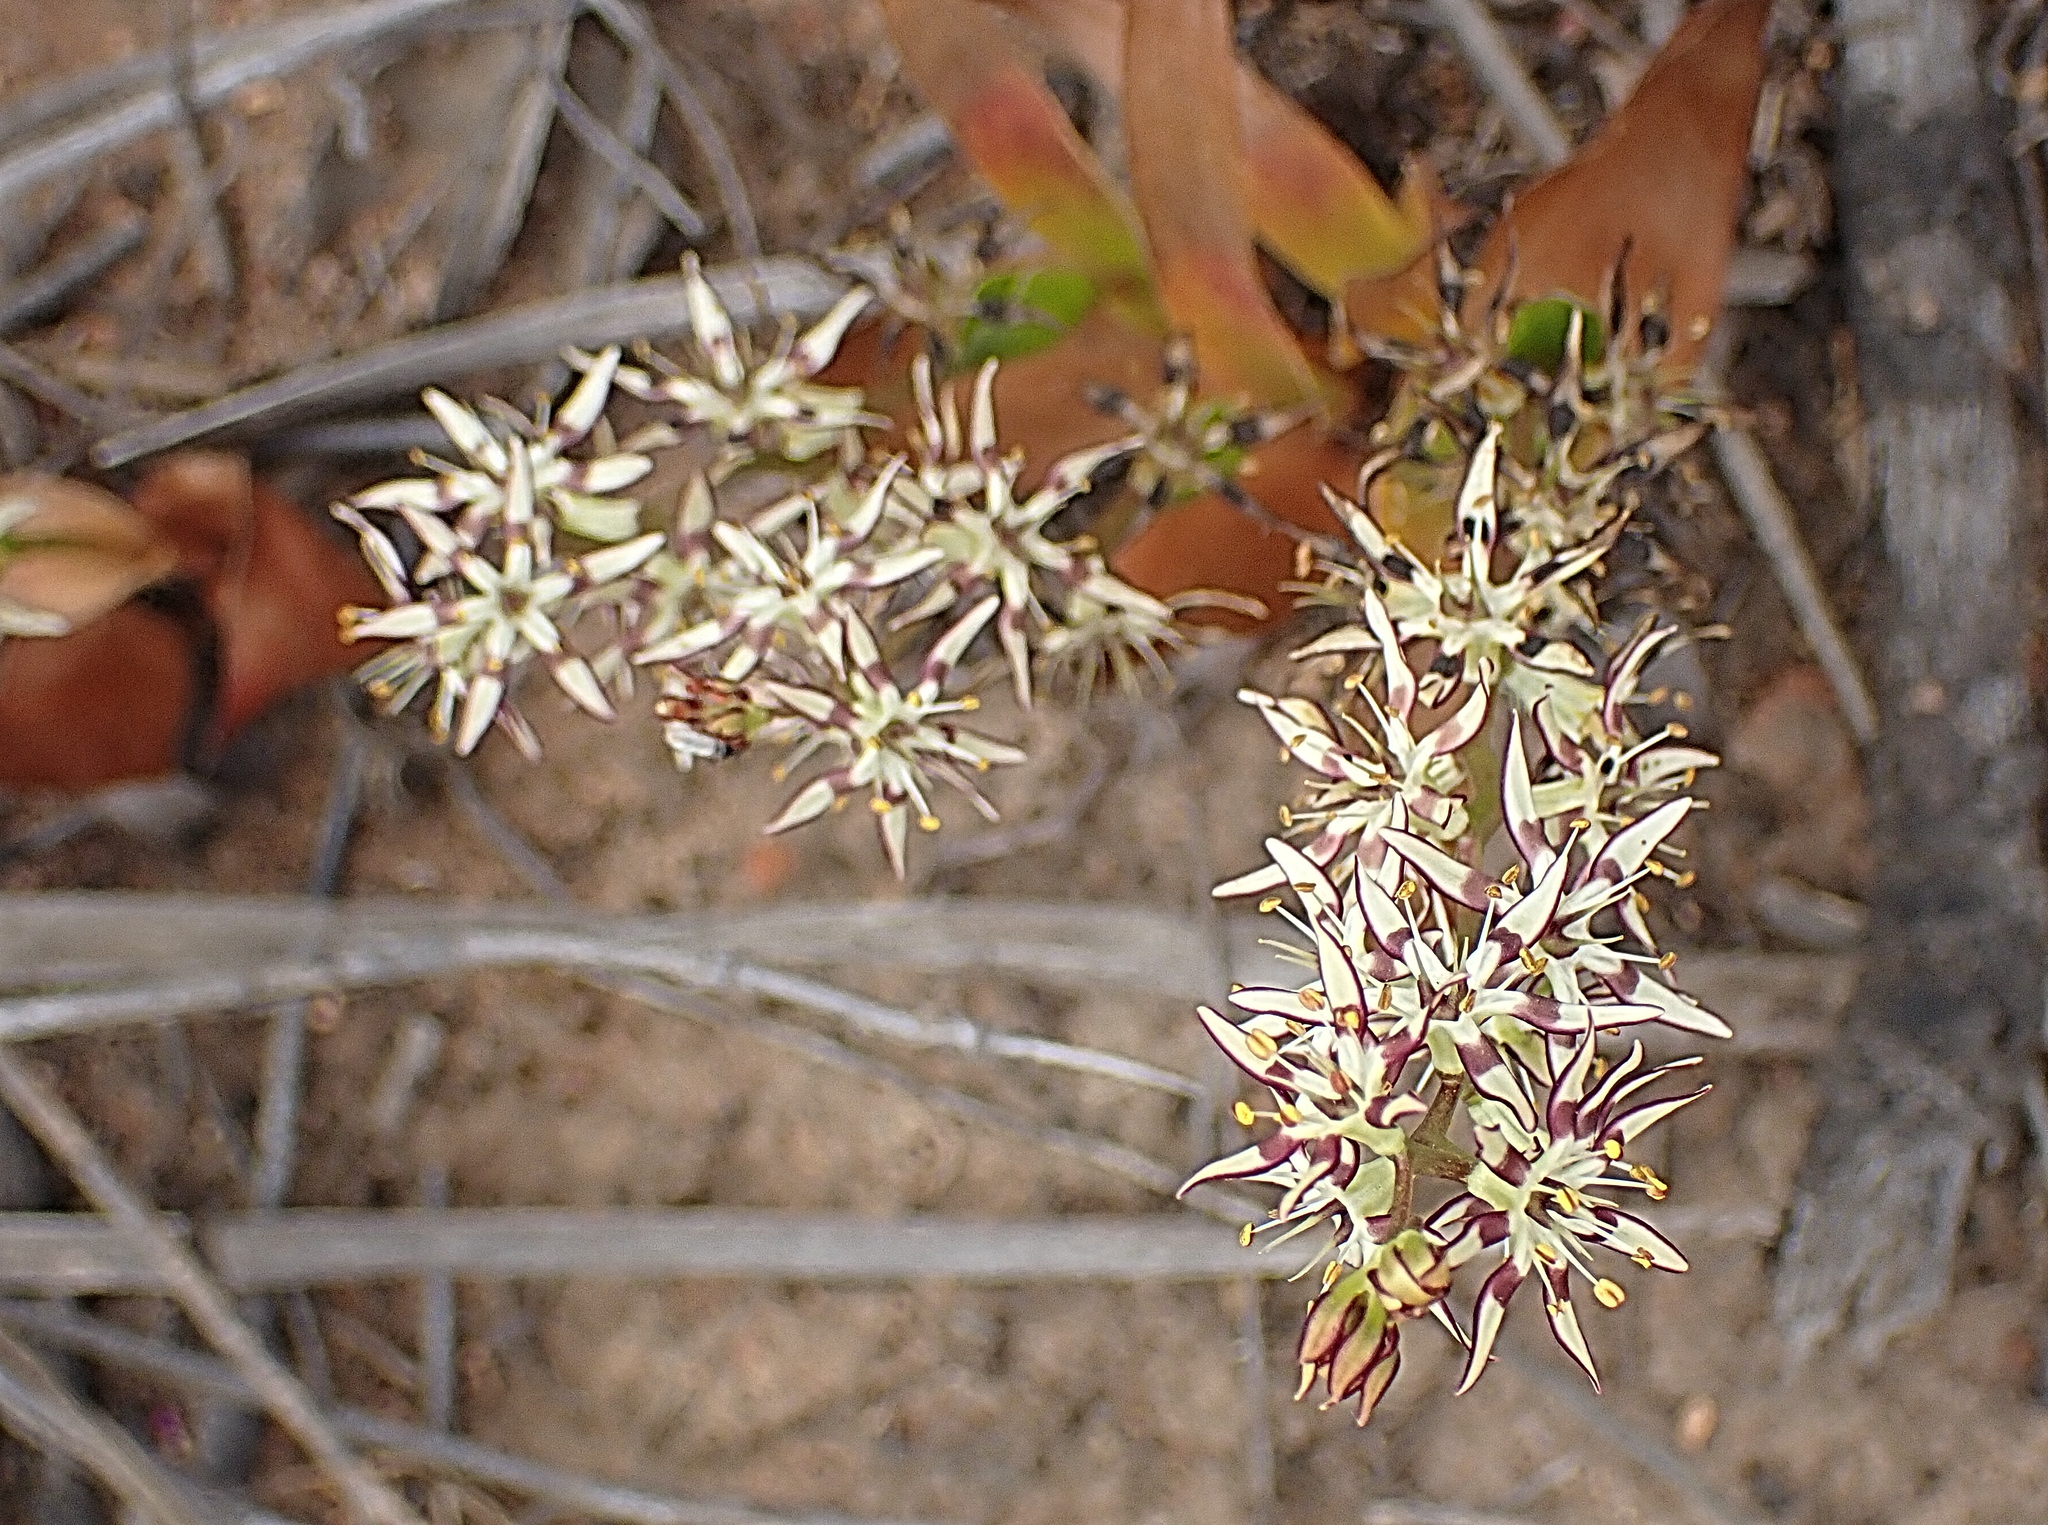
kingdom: Plantae
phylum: Tracheophyta
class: Liliopsida
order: Liliales
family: Colchicaceae
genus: Wurmbea
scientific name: Wurmbea spicata
